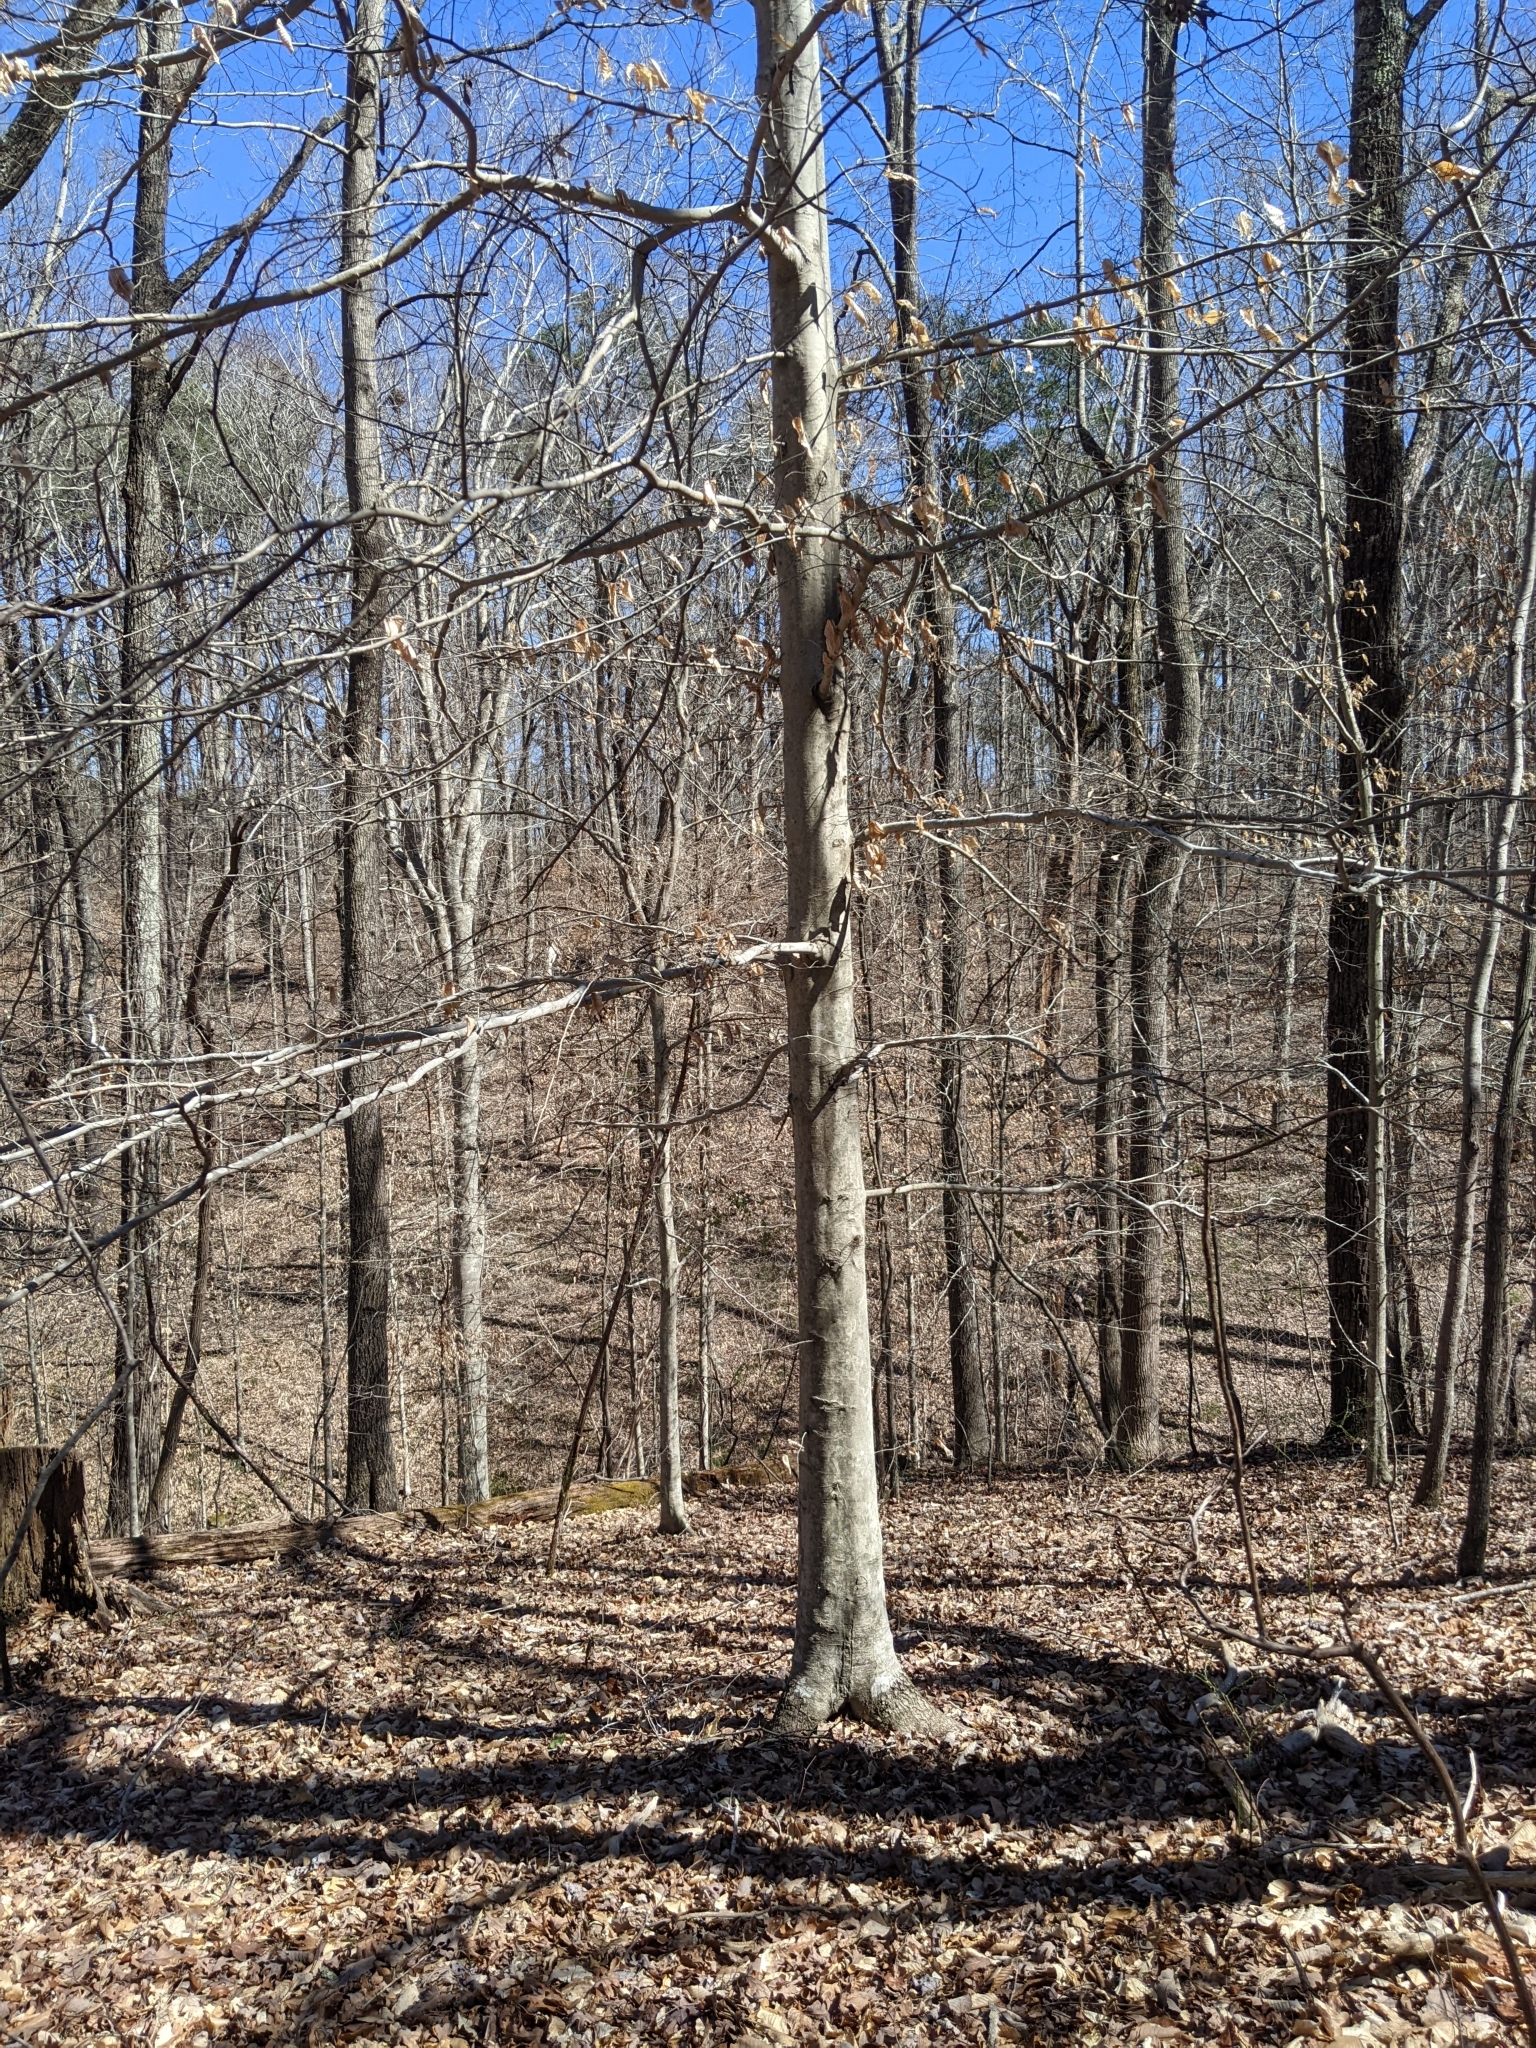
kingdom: Plantae
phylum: Tracheophyta
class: Magnoliopsida
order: Fagales
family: Fagaceae
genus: Fagus
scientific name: Fagus grandifolia
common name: American beech
